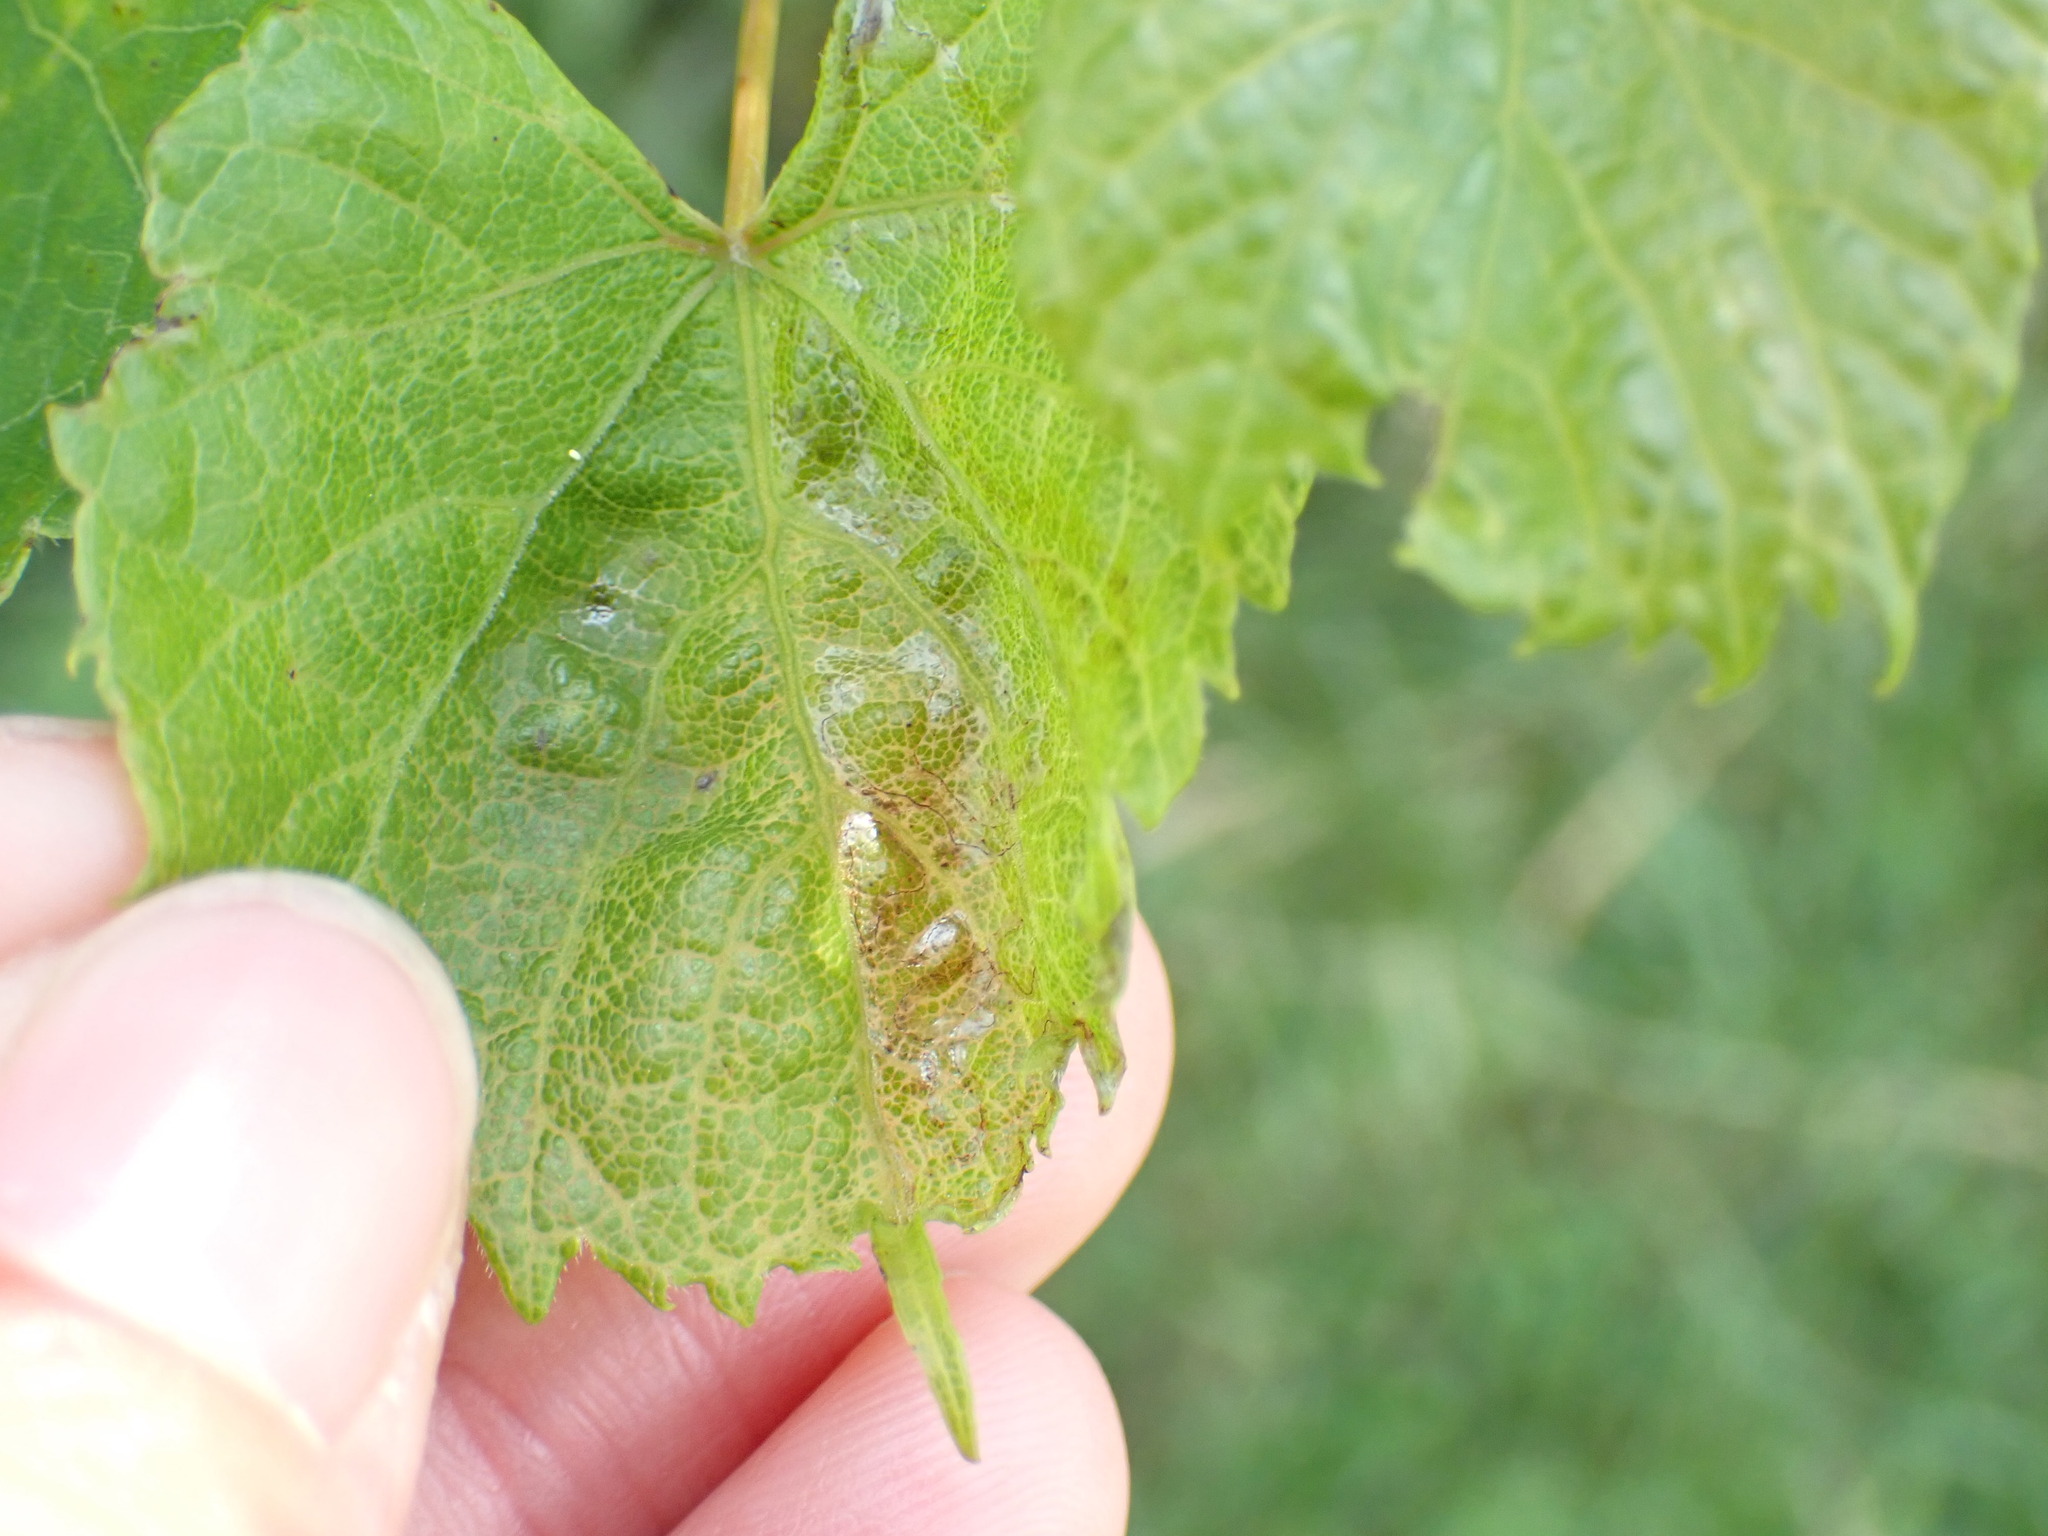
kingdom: Animalia
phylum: Arthropoda
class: Insecta
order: Lepidoptera
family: Gracillariidae
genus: Phyllocnistis
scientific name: Phyllocnistis vitegenella
